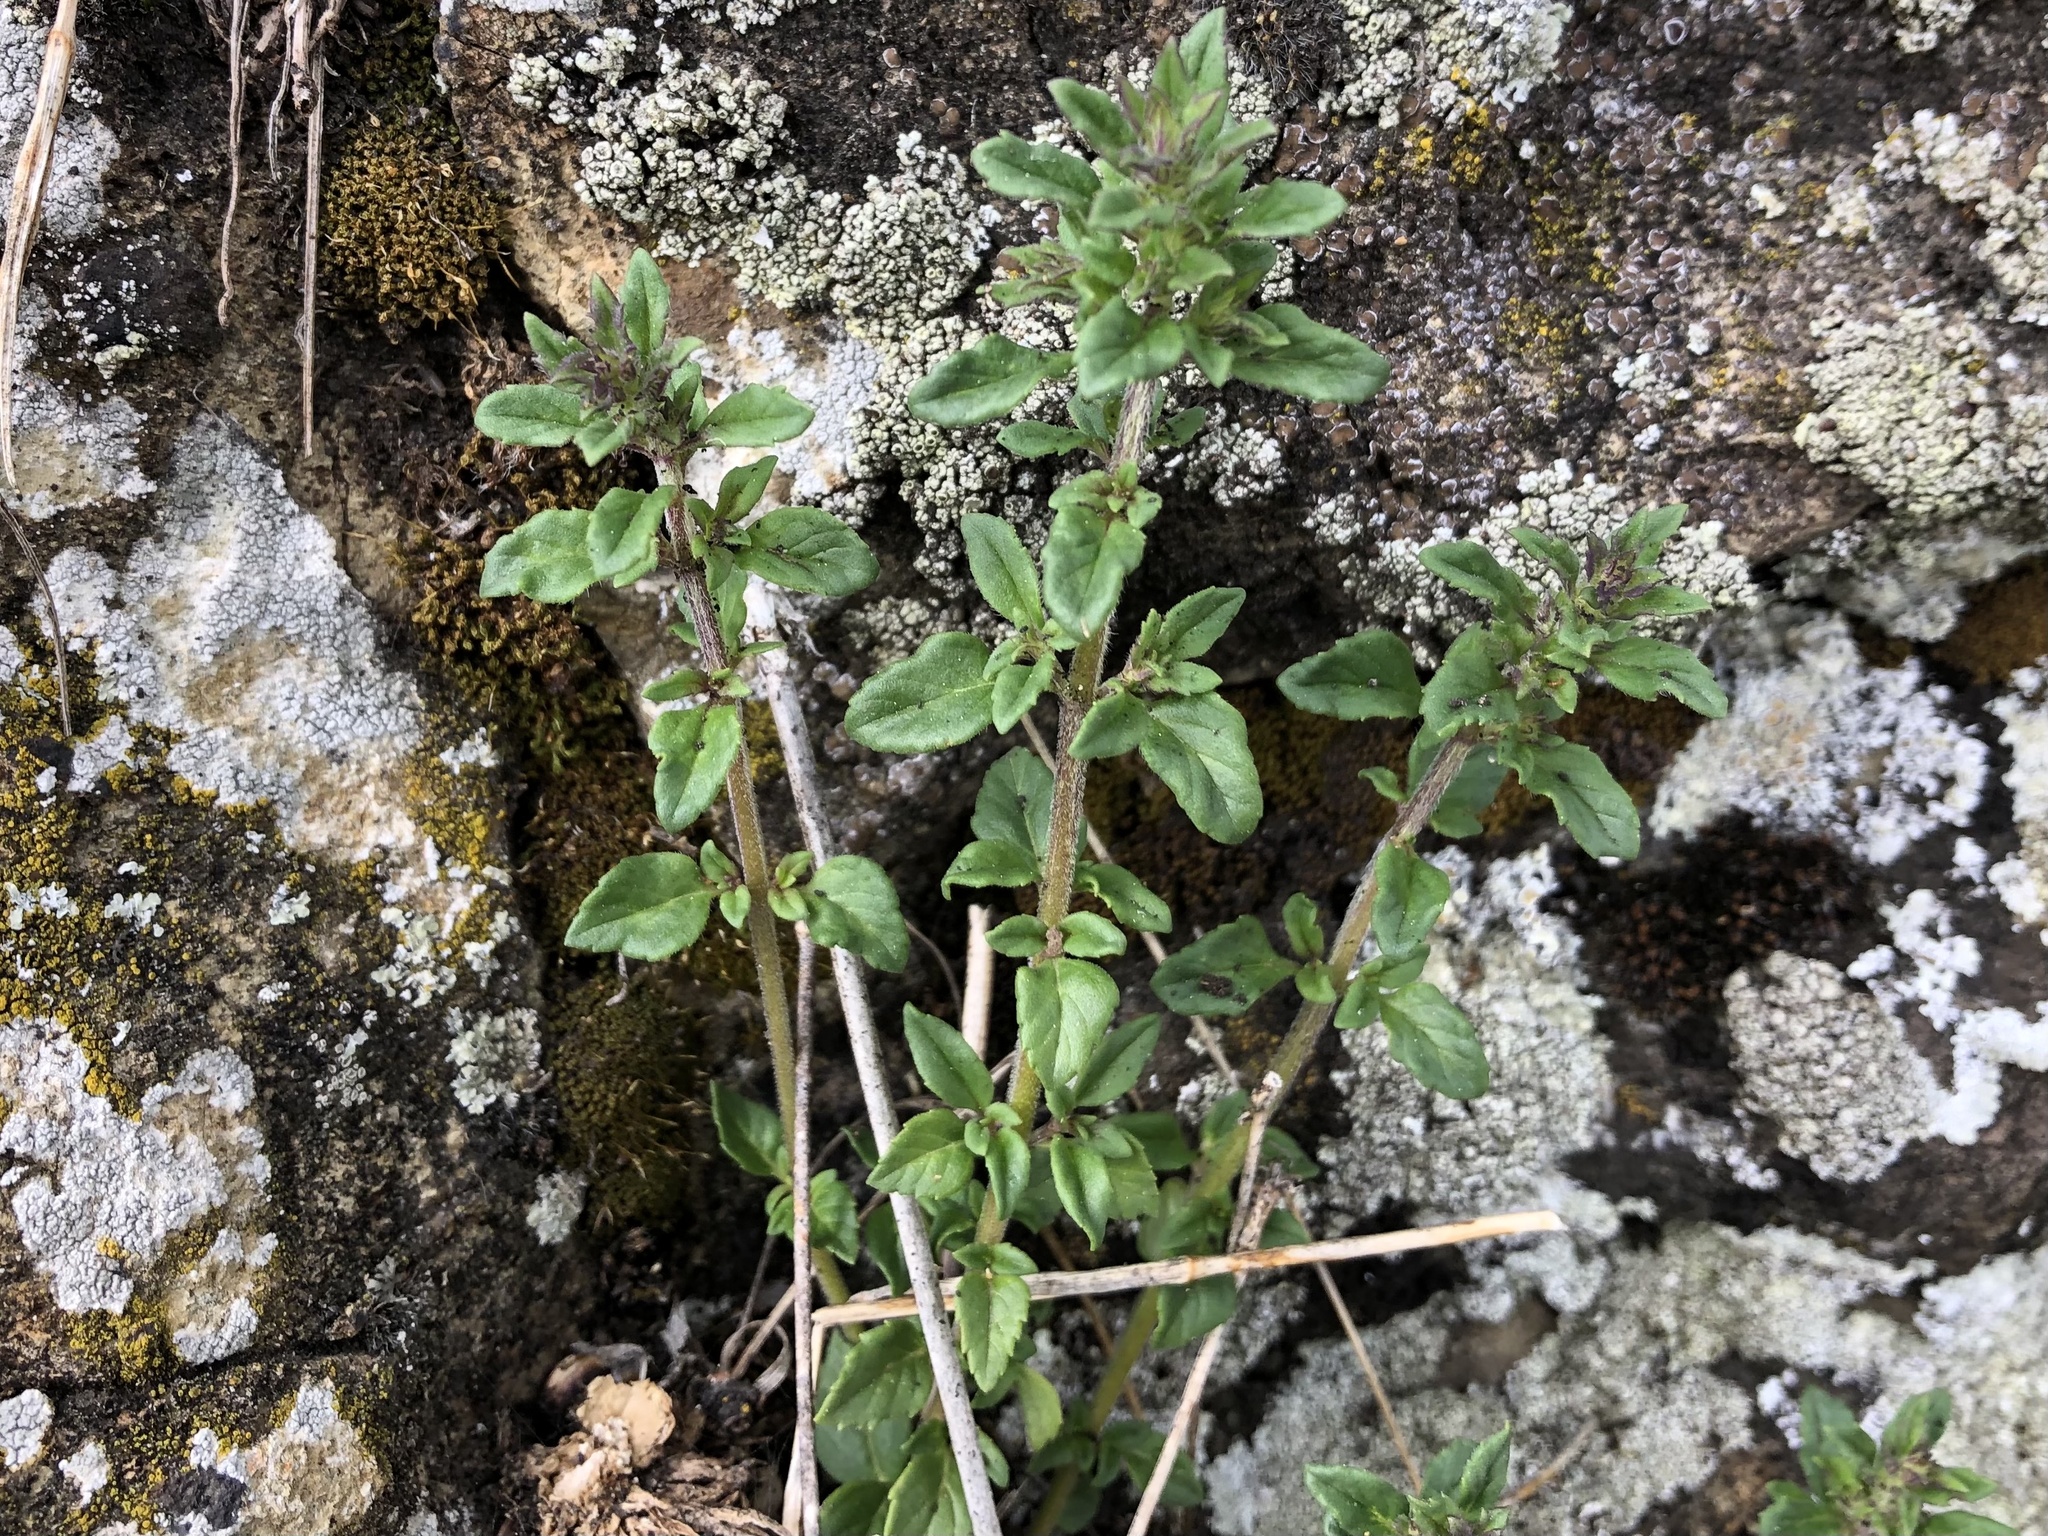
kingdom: Plantae
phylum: Tracheophyta
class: Magnoliopsida
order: Lamiales
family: Lamiaceae
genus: Clinopodium
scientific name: Clinopodium acinos
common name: Basil thyme
